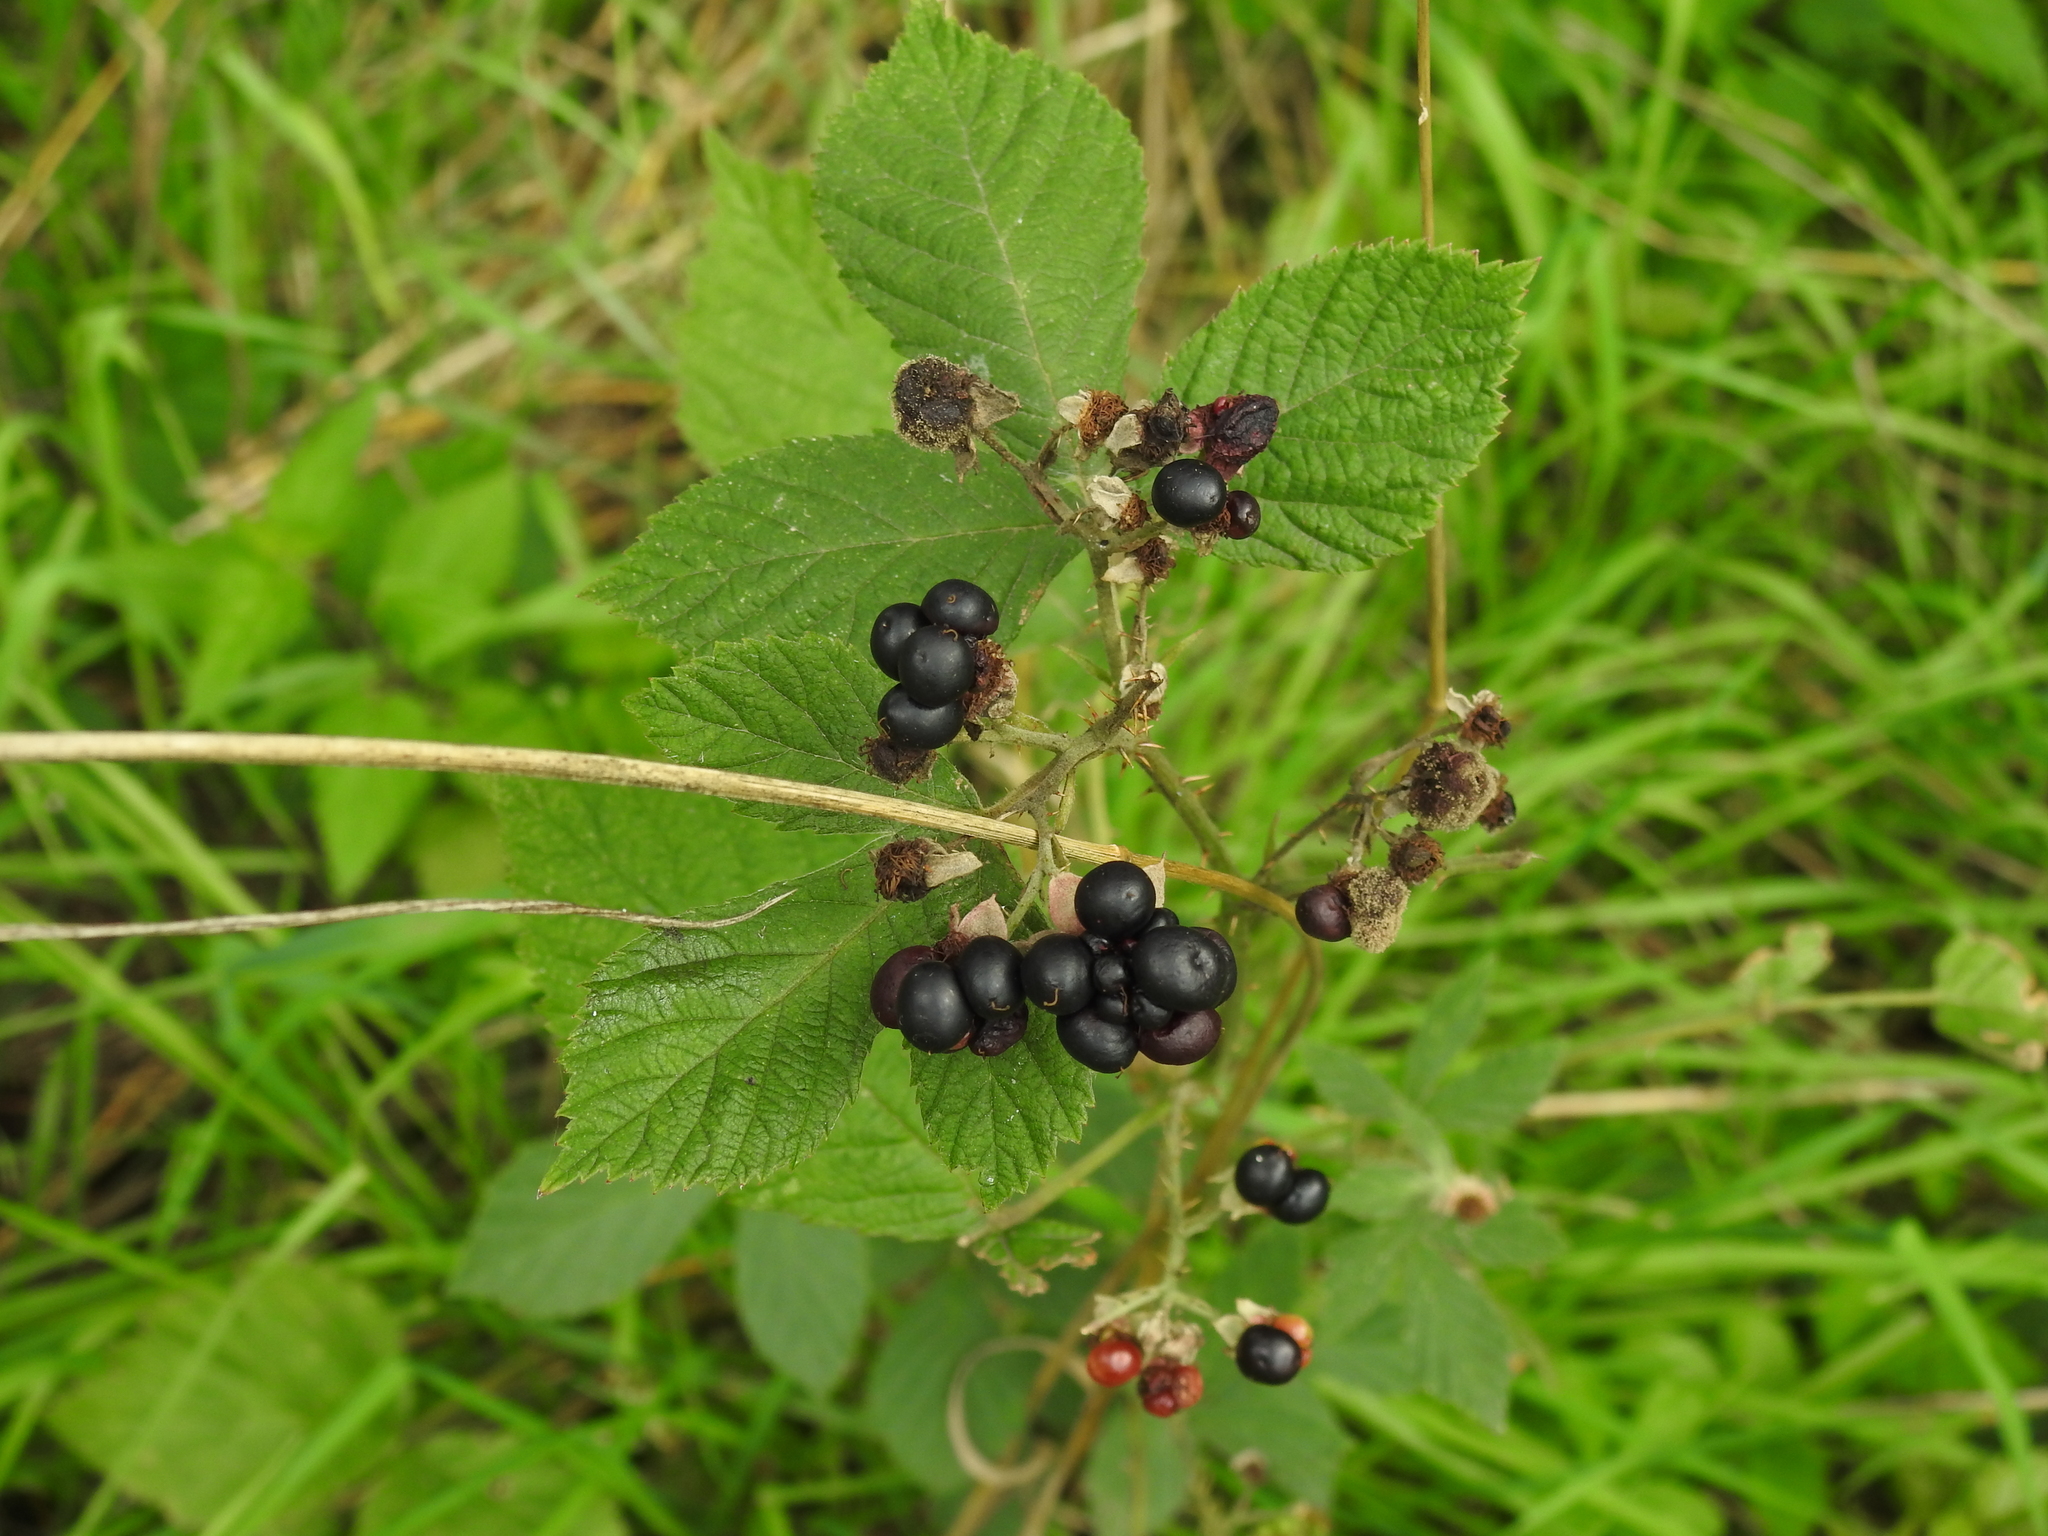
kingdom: Plantae
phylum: Tracheophyta
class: Magnoliopsida
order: Rosales
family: Rosaceae
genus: Rubus
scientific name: Rubus caesius
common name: Dewberry
